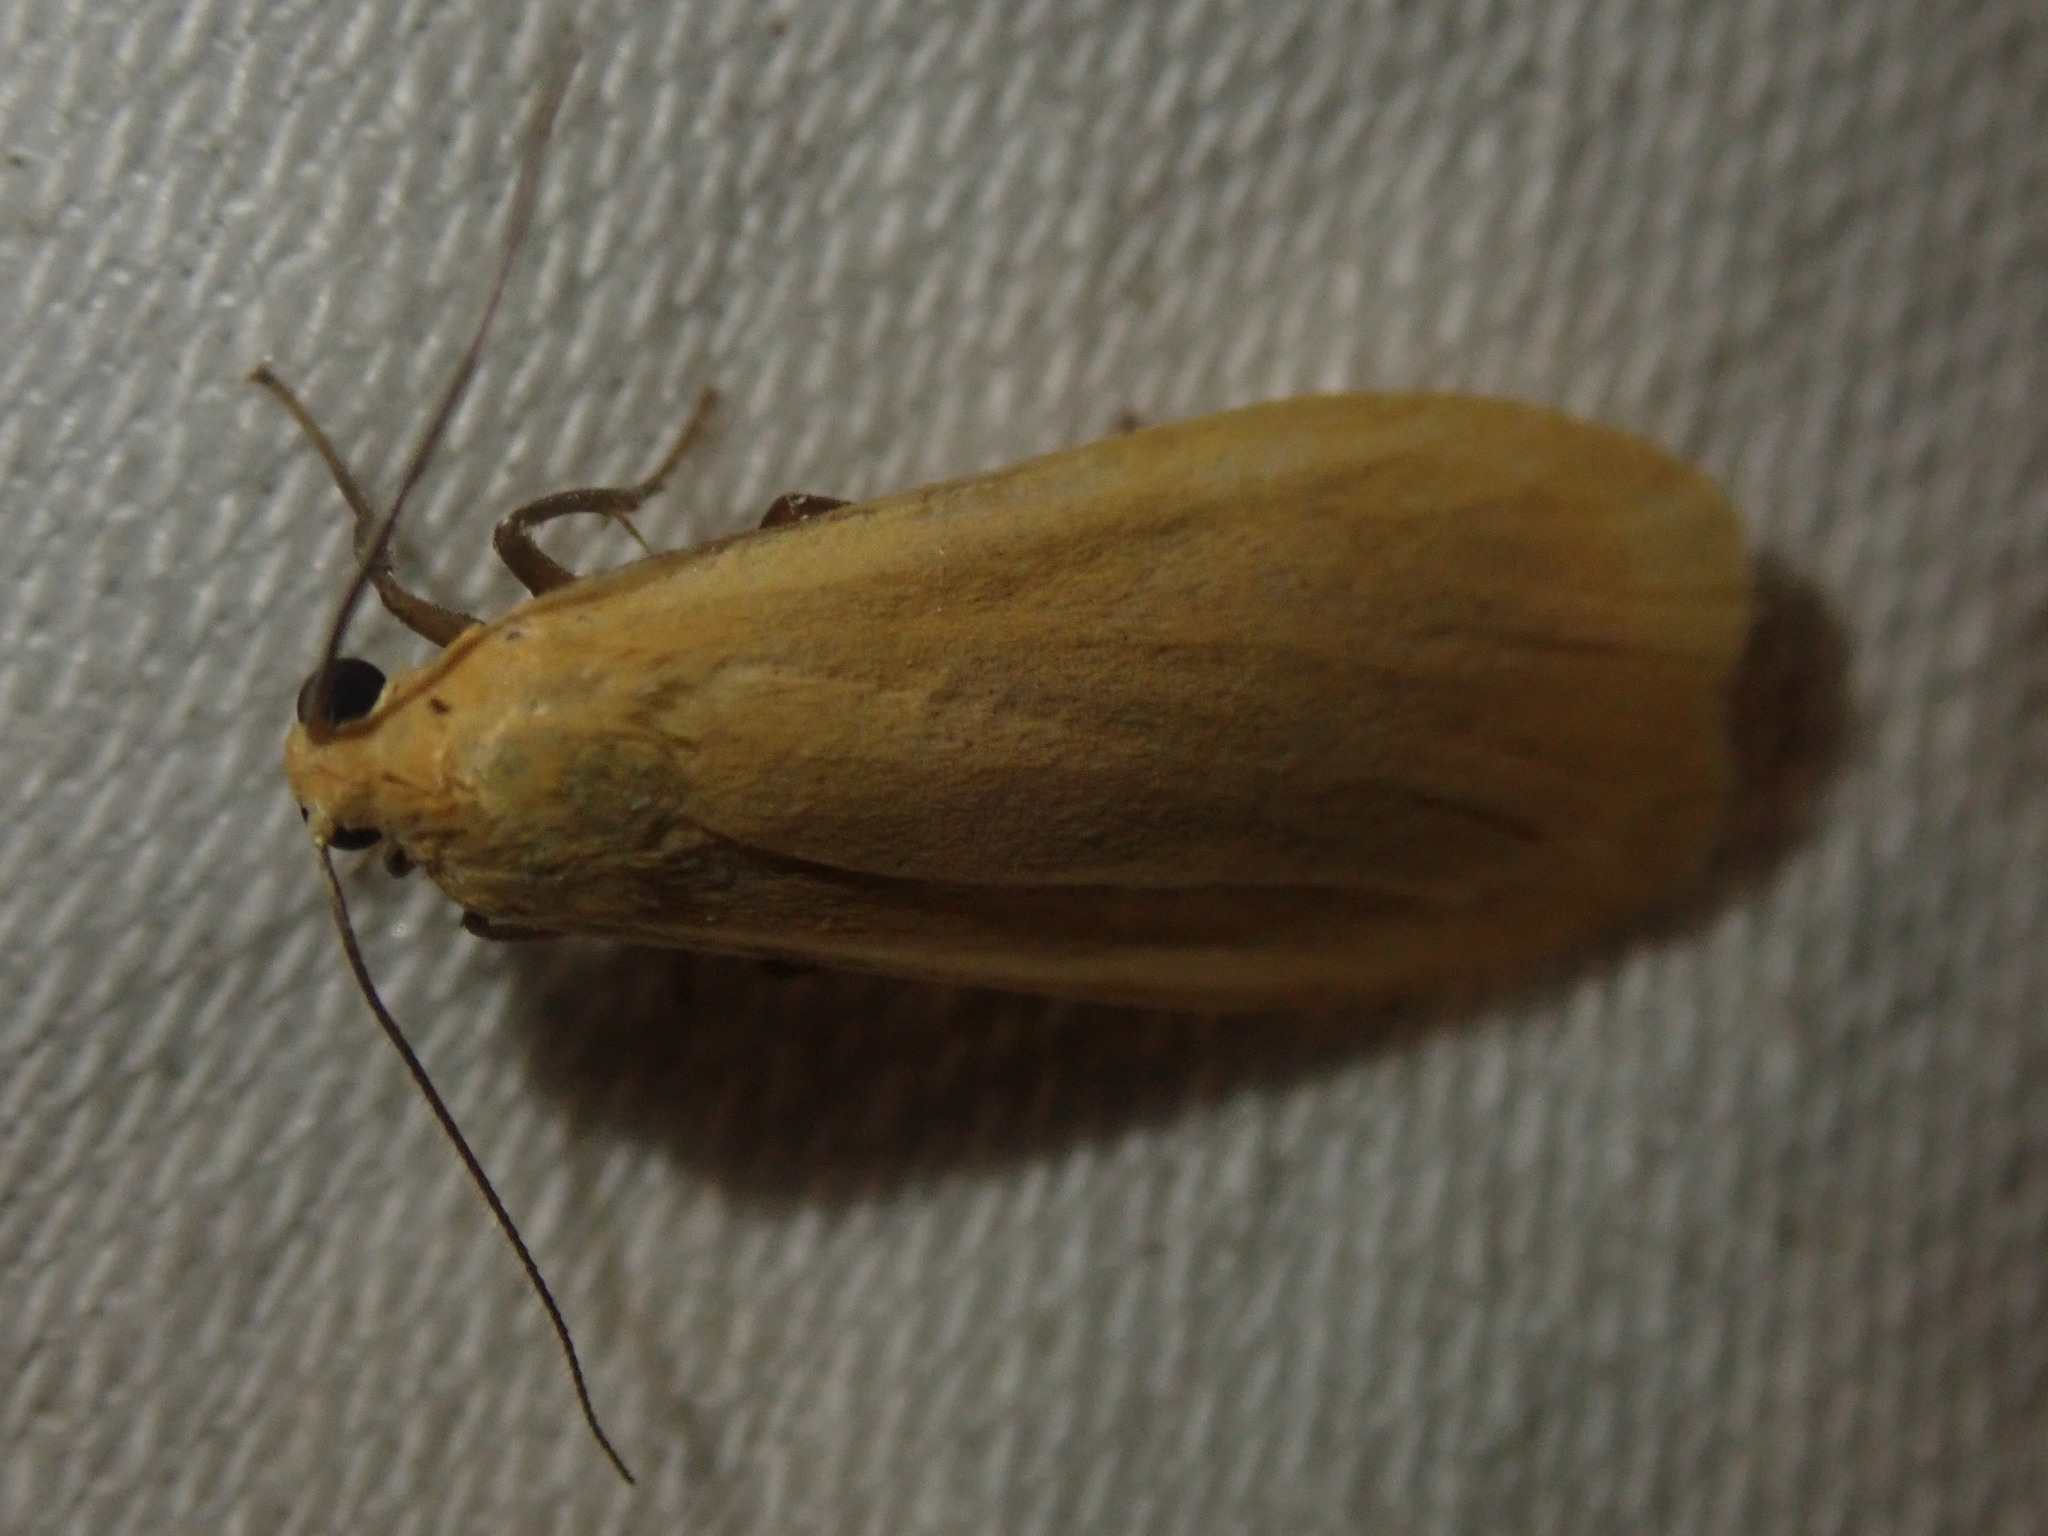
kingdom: Animalia
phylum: Arthropoda
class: Insecta
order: Lepidoptera
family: Erebidae
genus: Wittia
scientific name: Wittia sororcula
